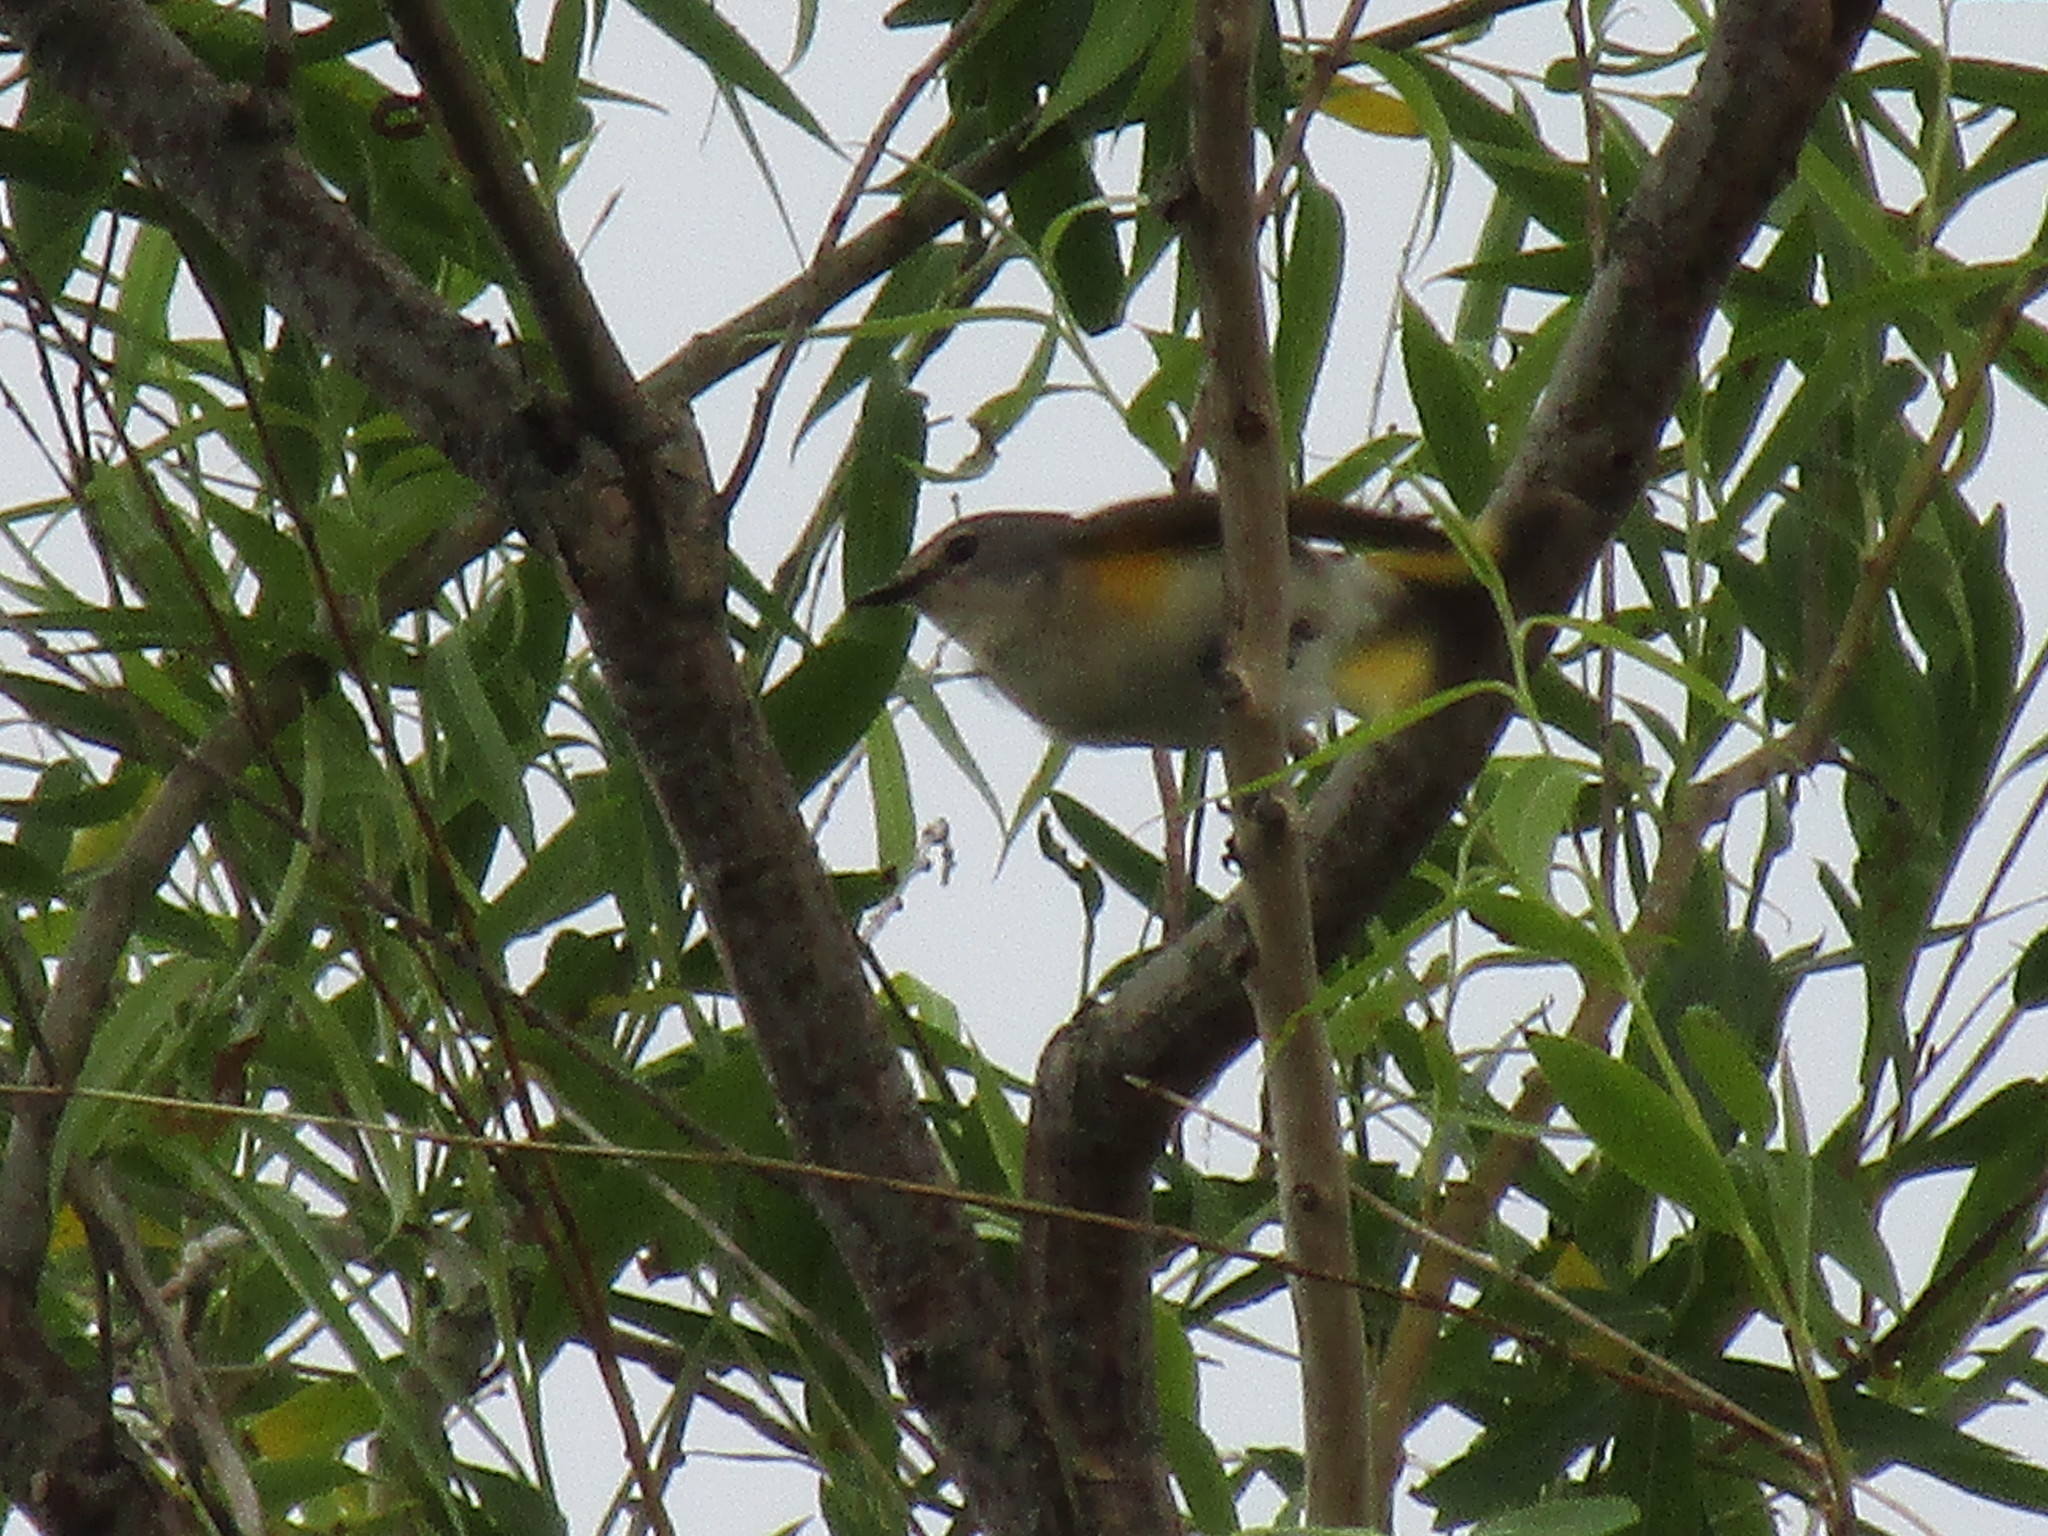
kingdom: Animalia
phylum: Chordata
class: Aves
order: Passeriformes
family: Parulidae
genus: Setophaga
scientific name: Setophaga ruticilla
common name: American redstart
